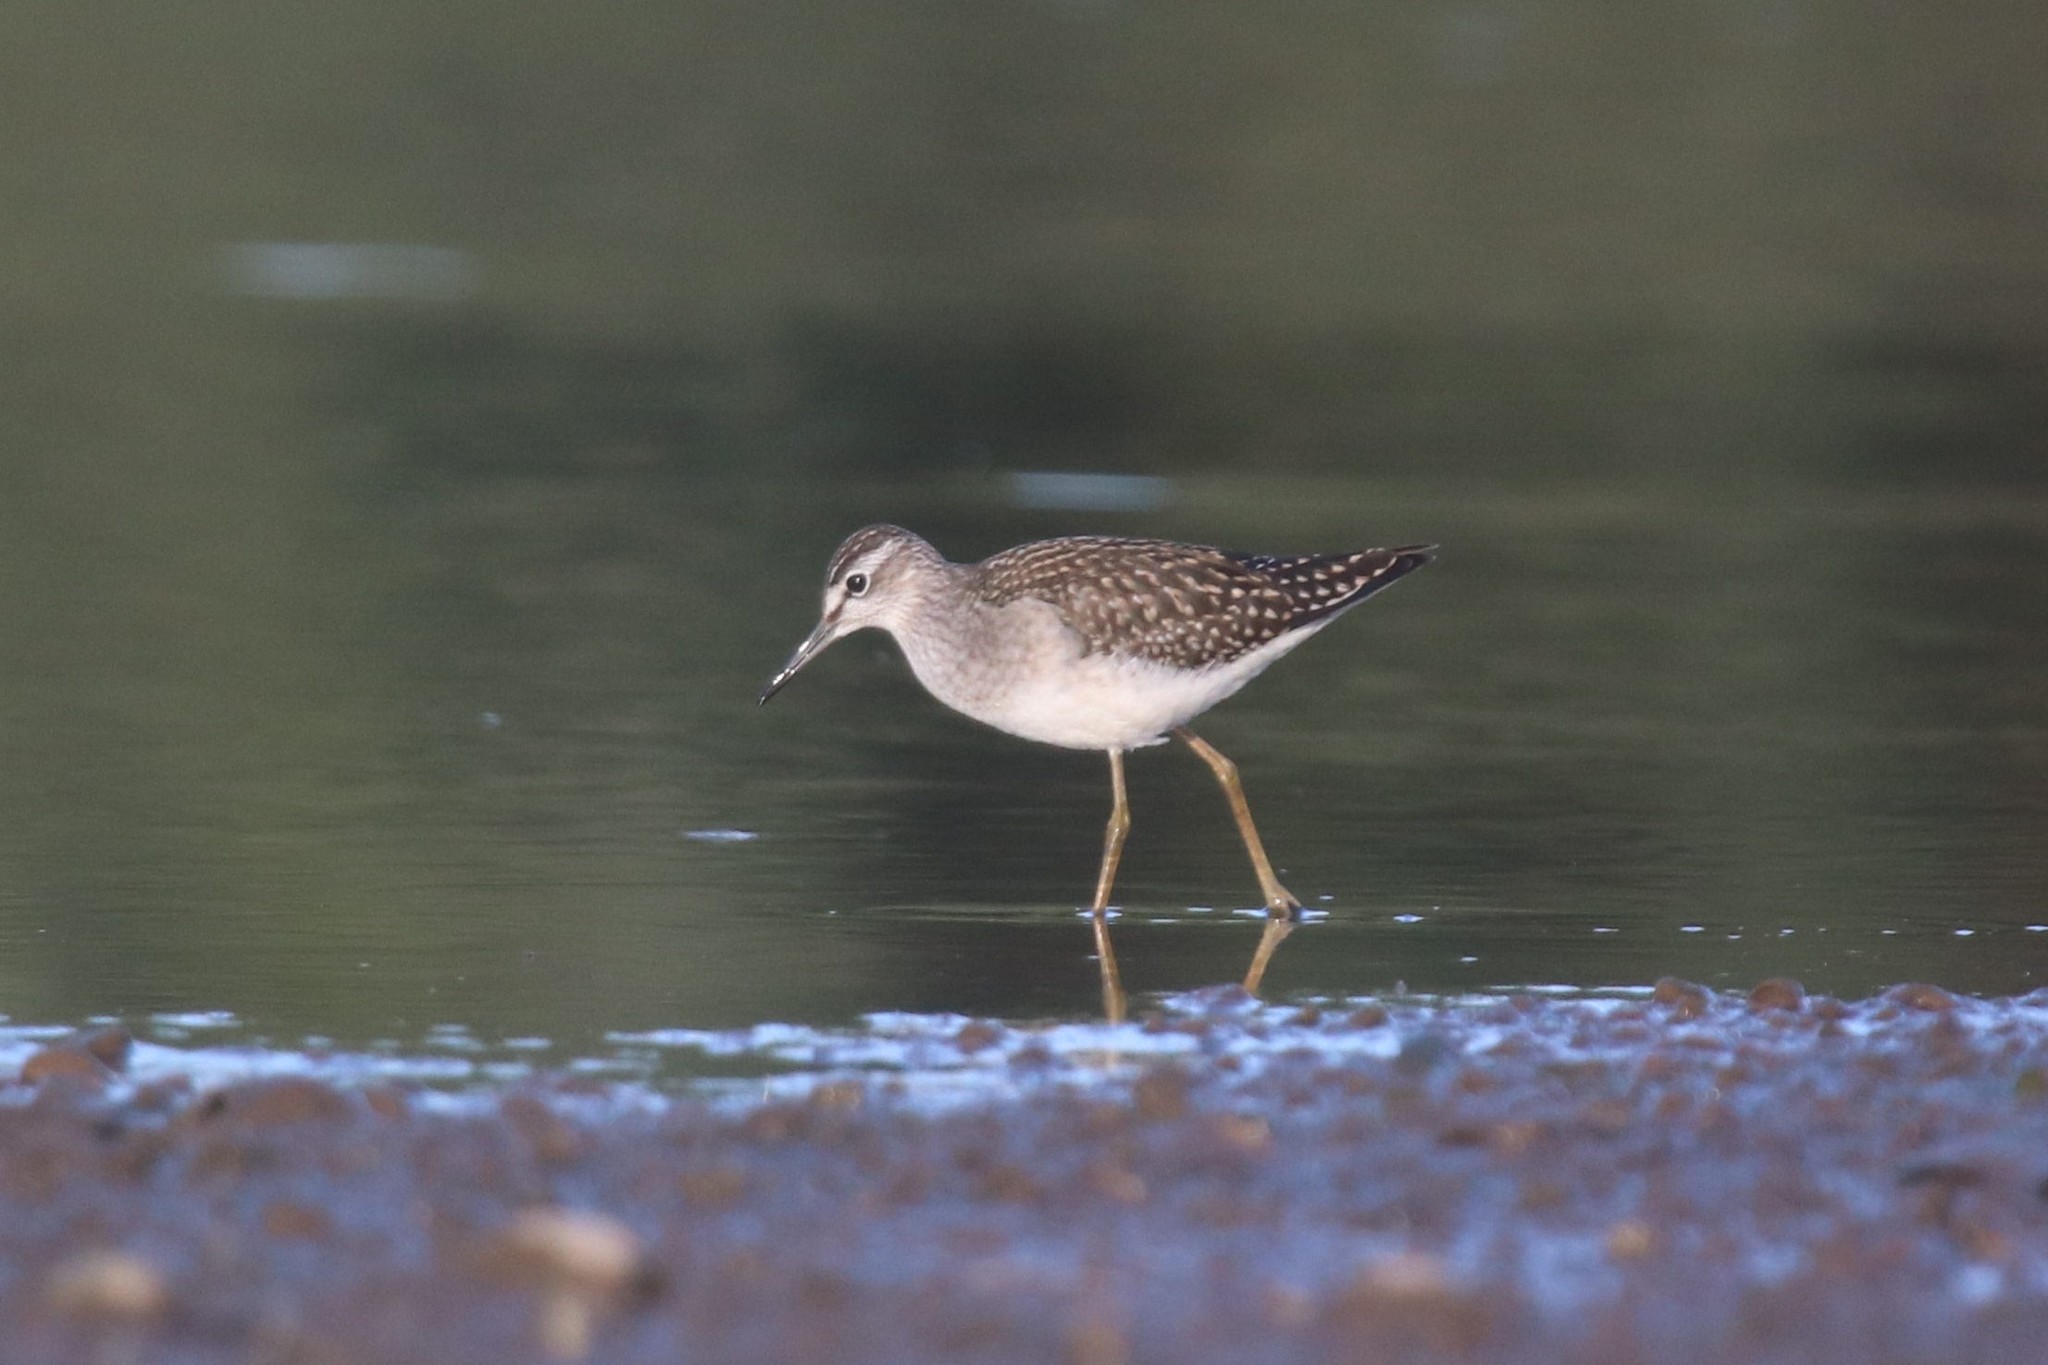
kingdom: Animalia
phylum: Chordata
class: Aves
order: Charadriiformes
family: Scolopacidae
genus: Tringa
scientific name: Tringa glareola
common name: Wood sandpiper
